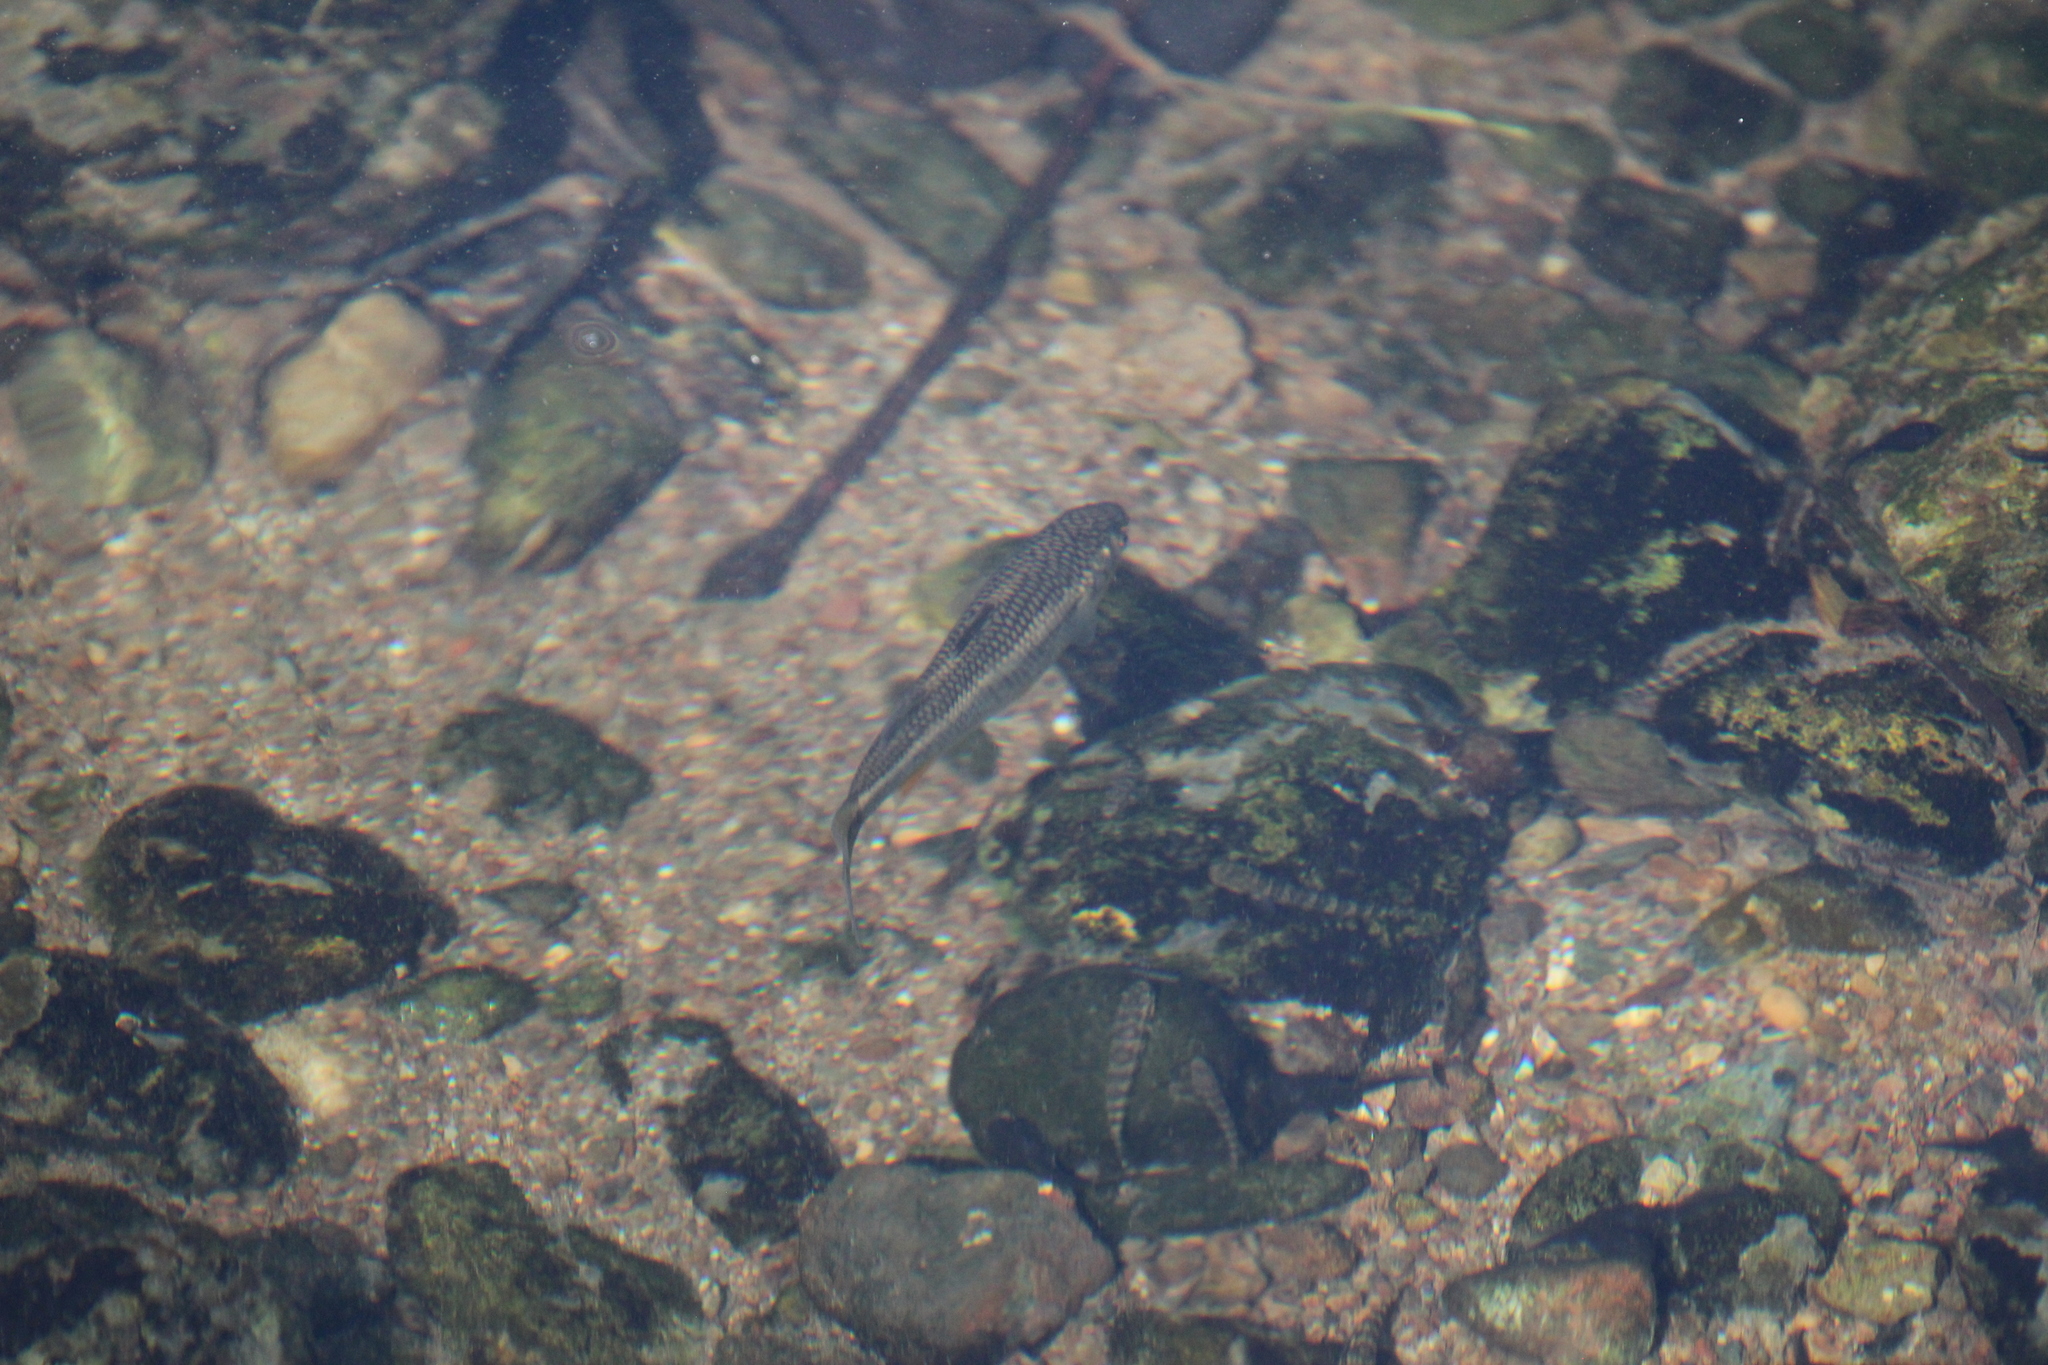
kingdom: Animalia
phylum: Chordata
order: Mugiliformes
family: Mugilidae
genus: Dajaus
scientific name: Dajaus monticola
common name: Mountain mullet
